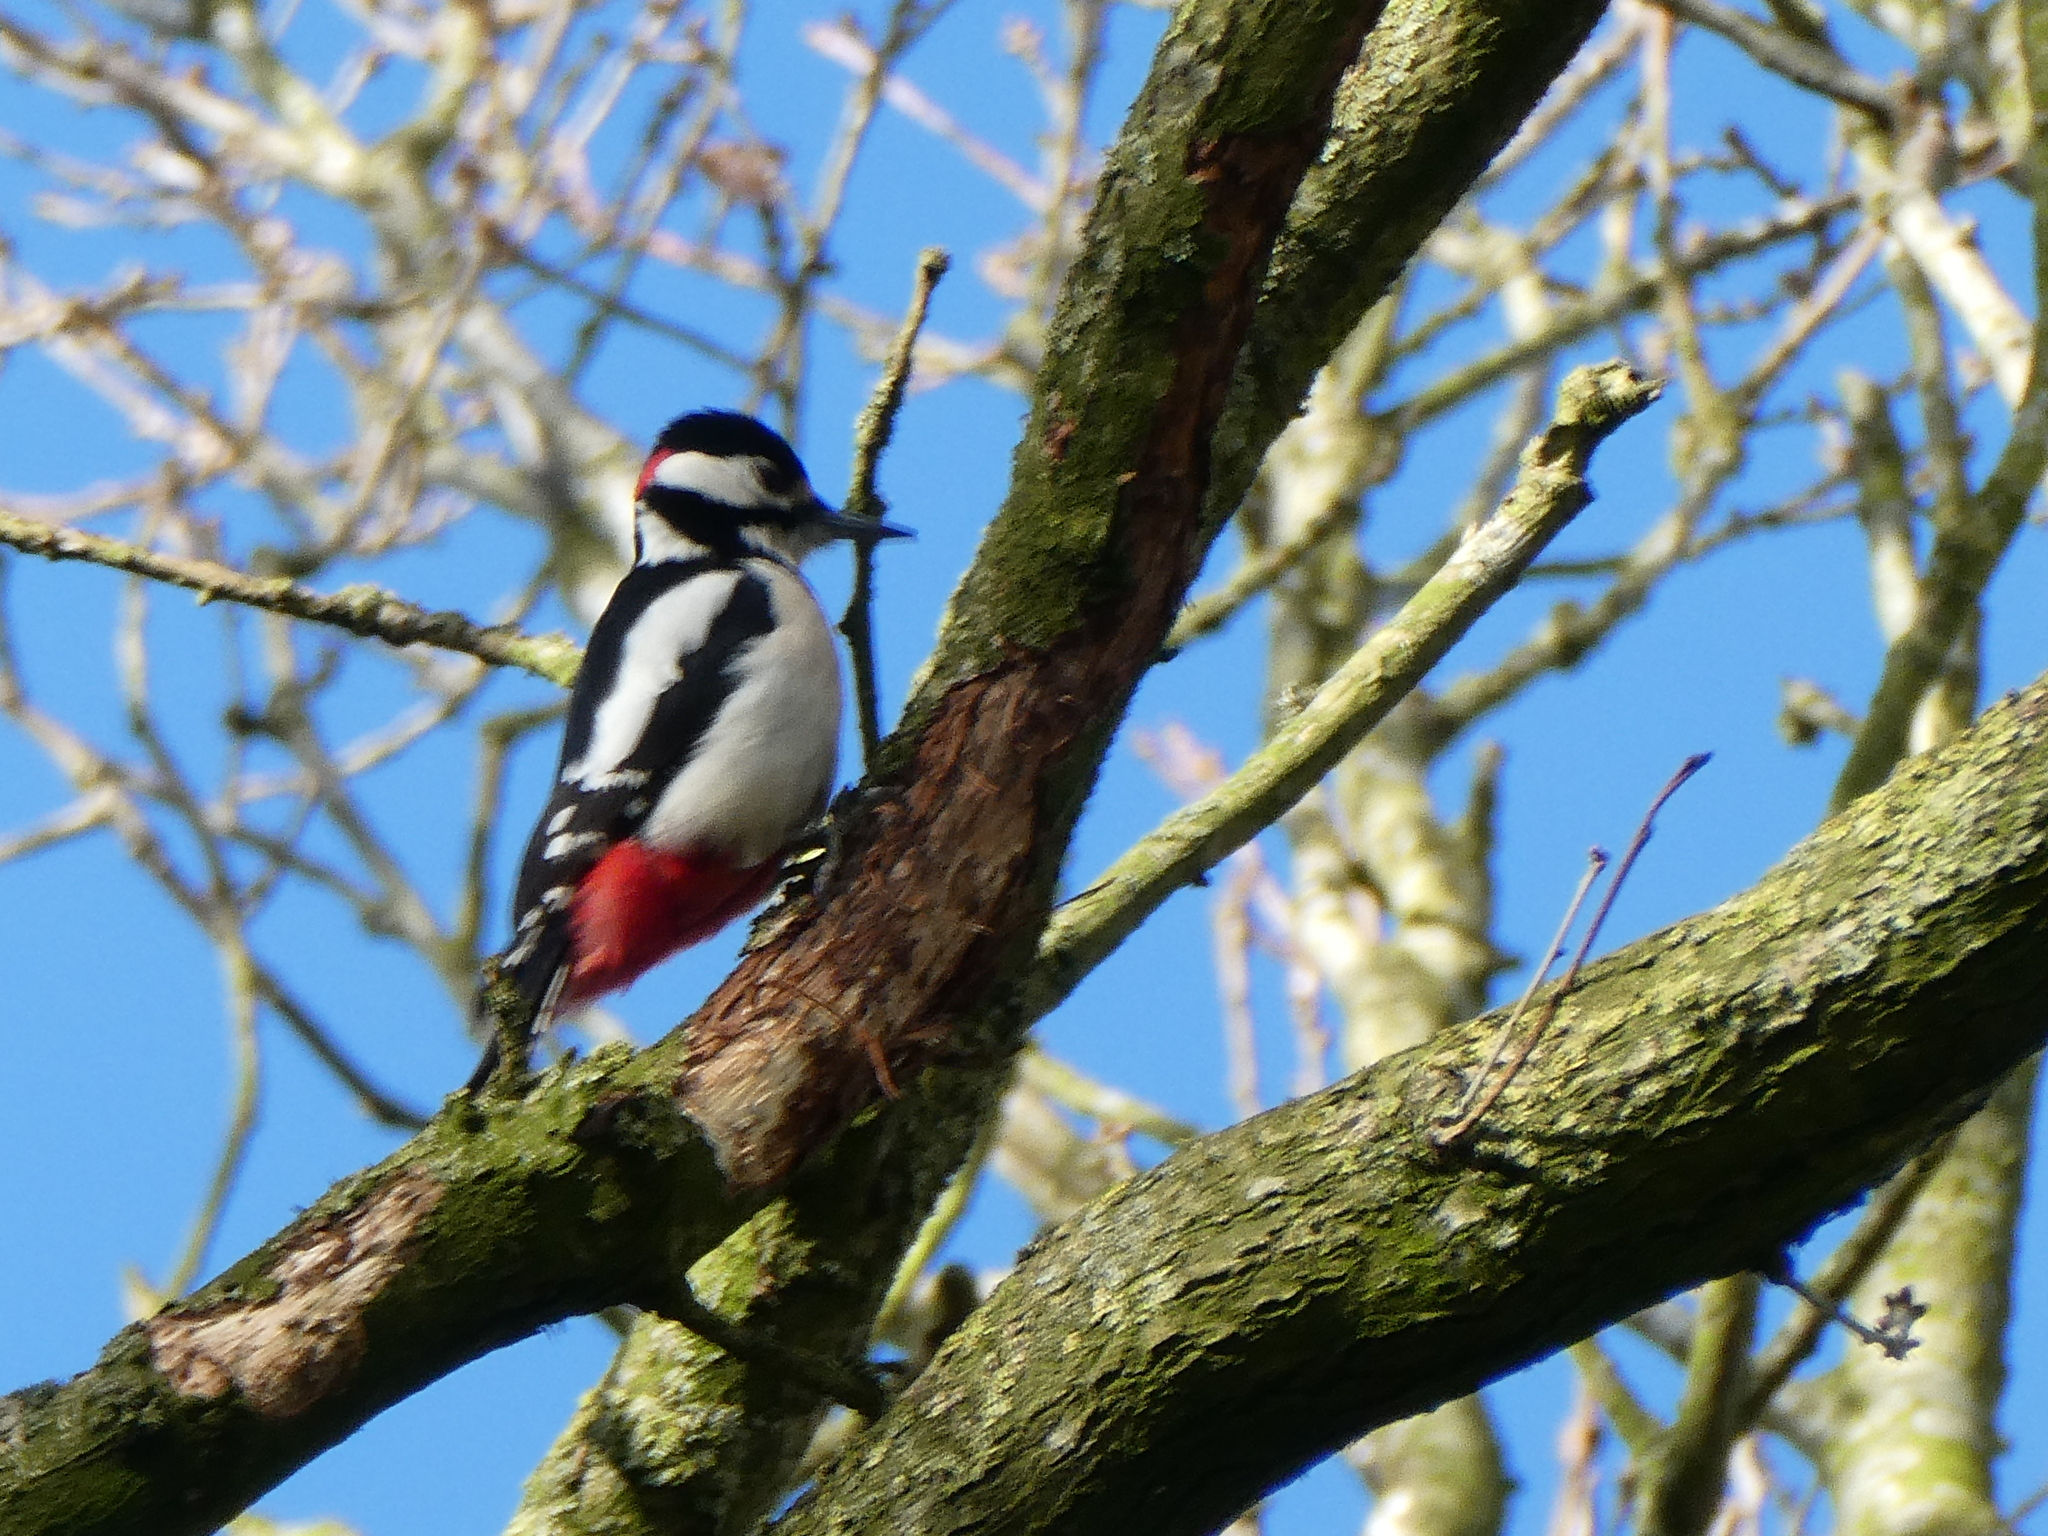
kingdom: Animalia
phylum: Chordata
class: Aves
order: Piciformes
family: Picidae
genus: Dendrocopos
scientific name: Dendrocopos major
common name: Great spotted woodpecker
